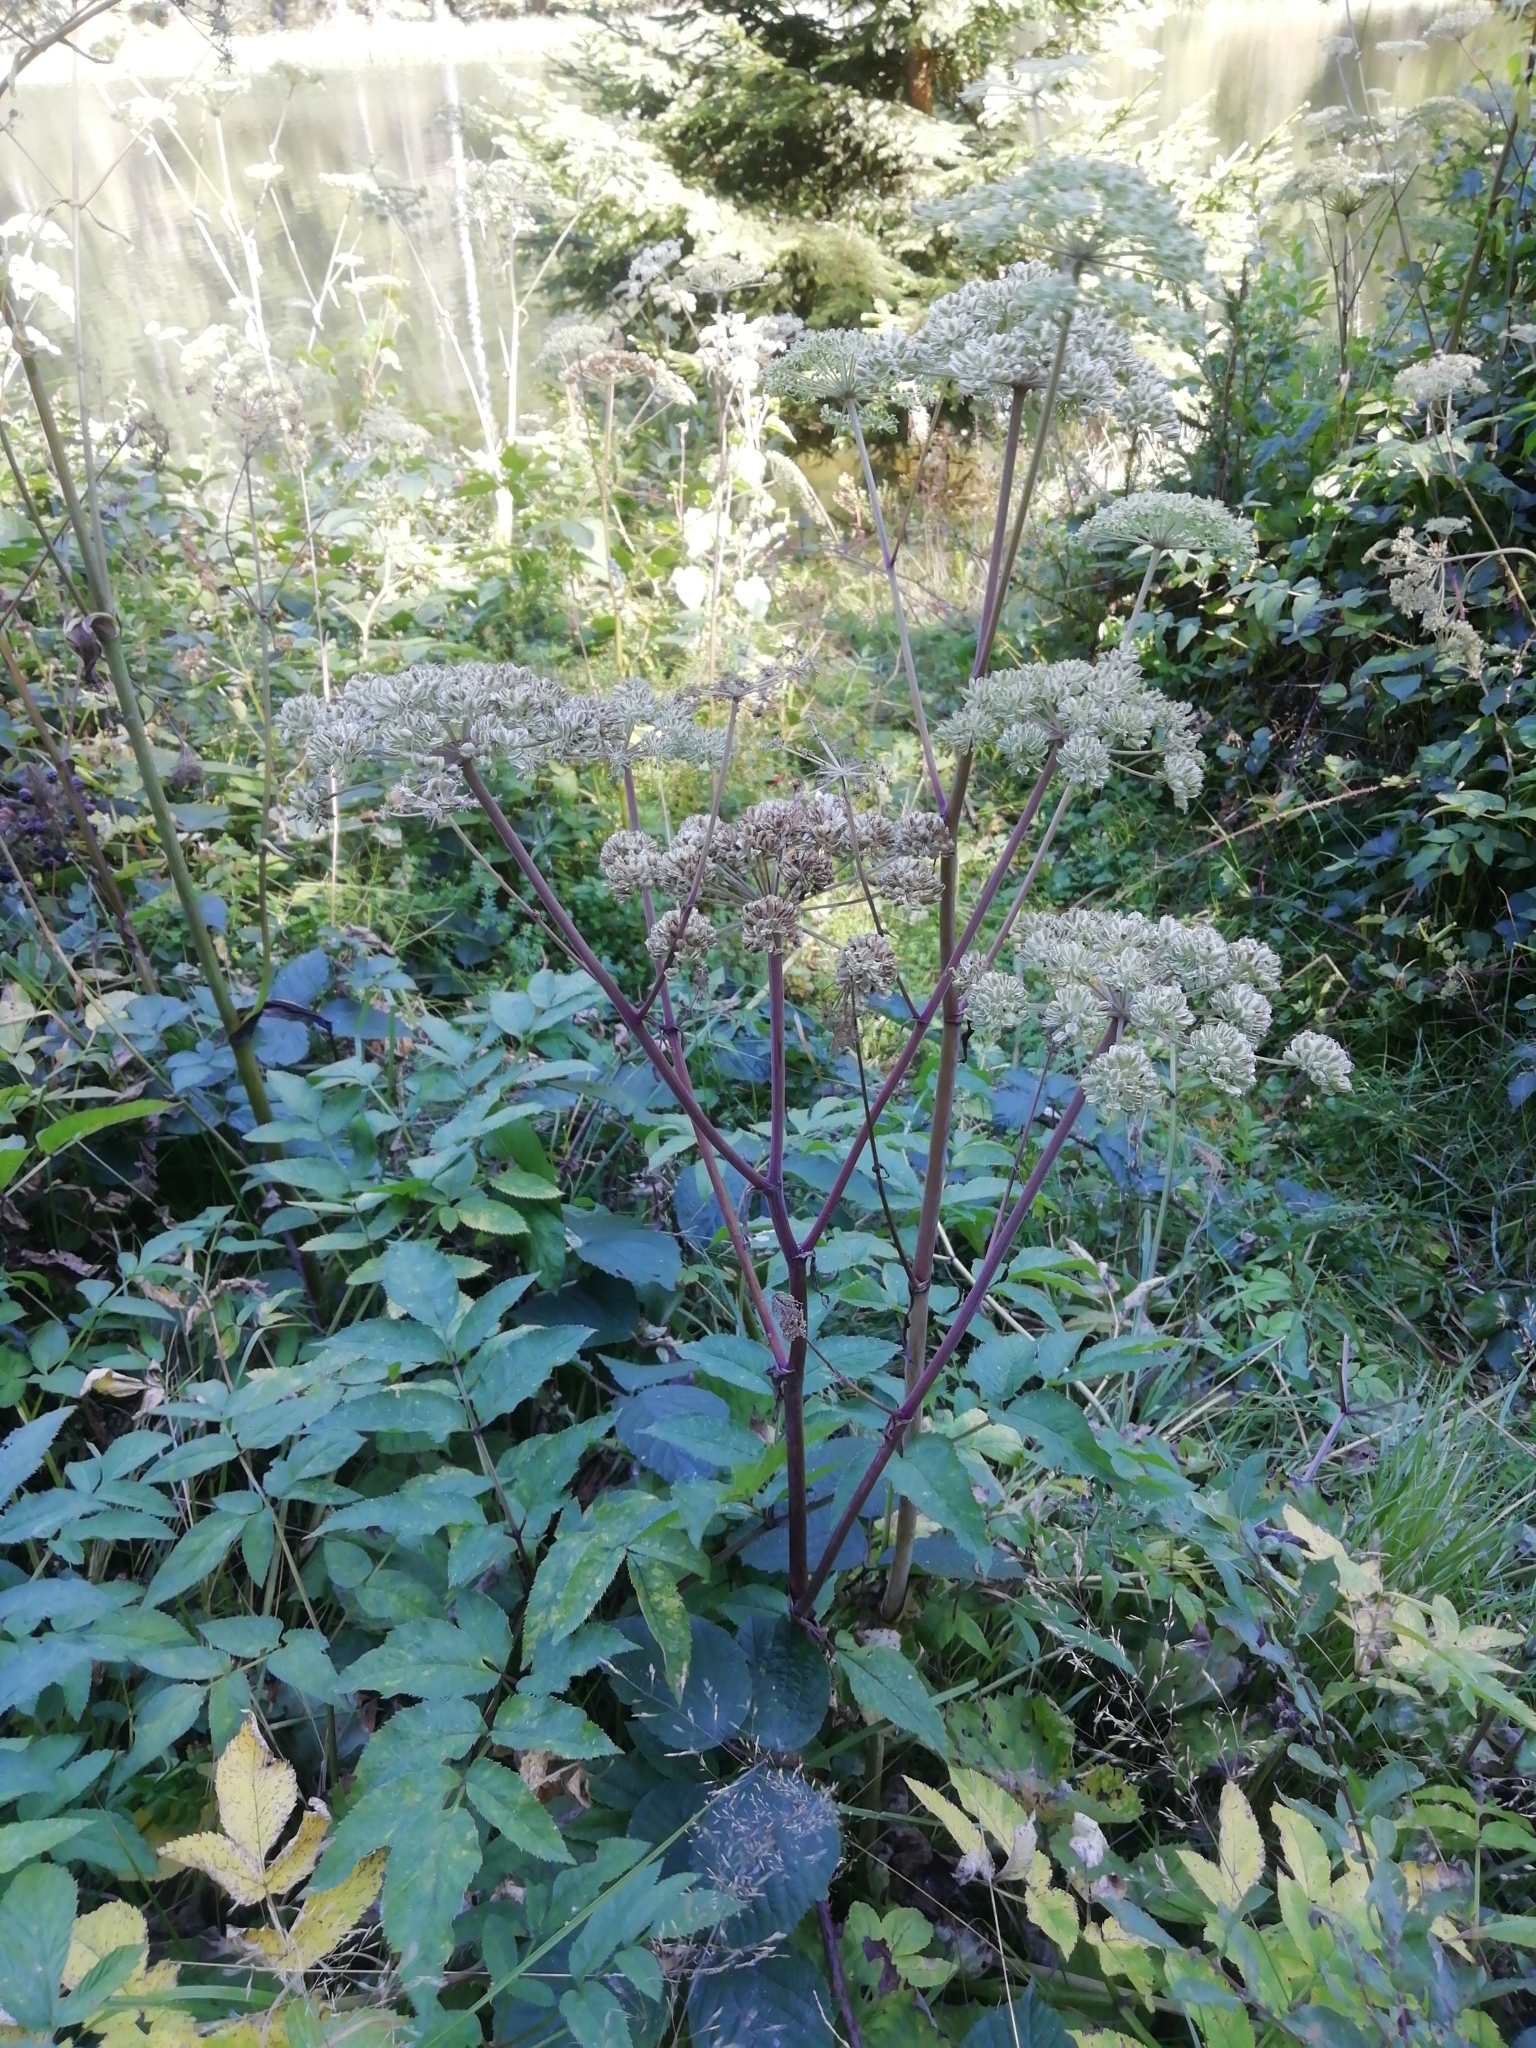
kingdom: Plantae
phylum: Tracheophyta
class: Magnoliopsida
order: Apiales
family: Apiaceae
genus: Angelica
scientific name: Angelica sylvestris
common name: Wild angelica
